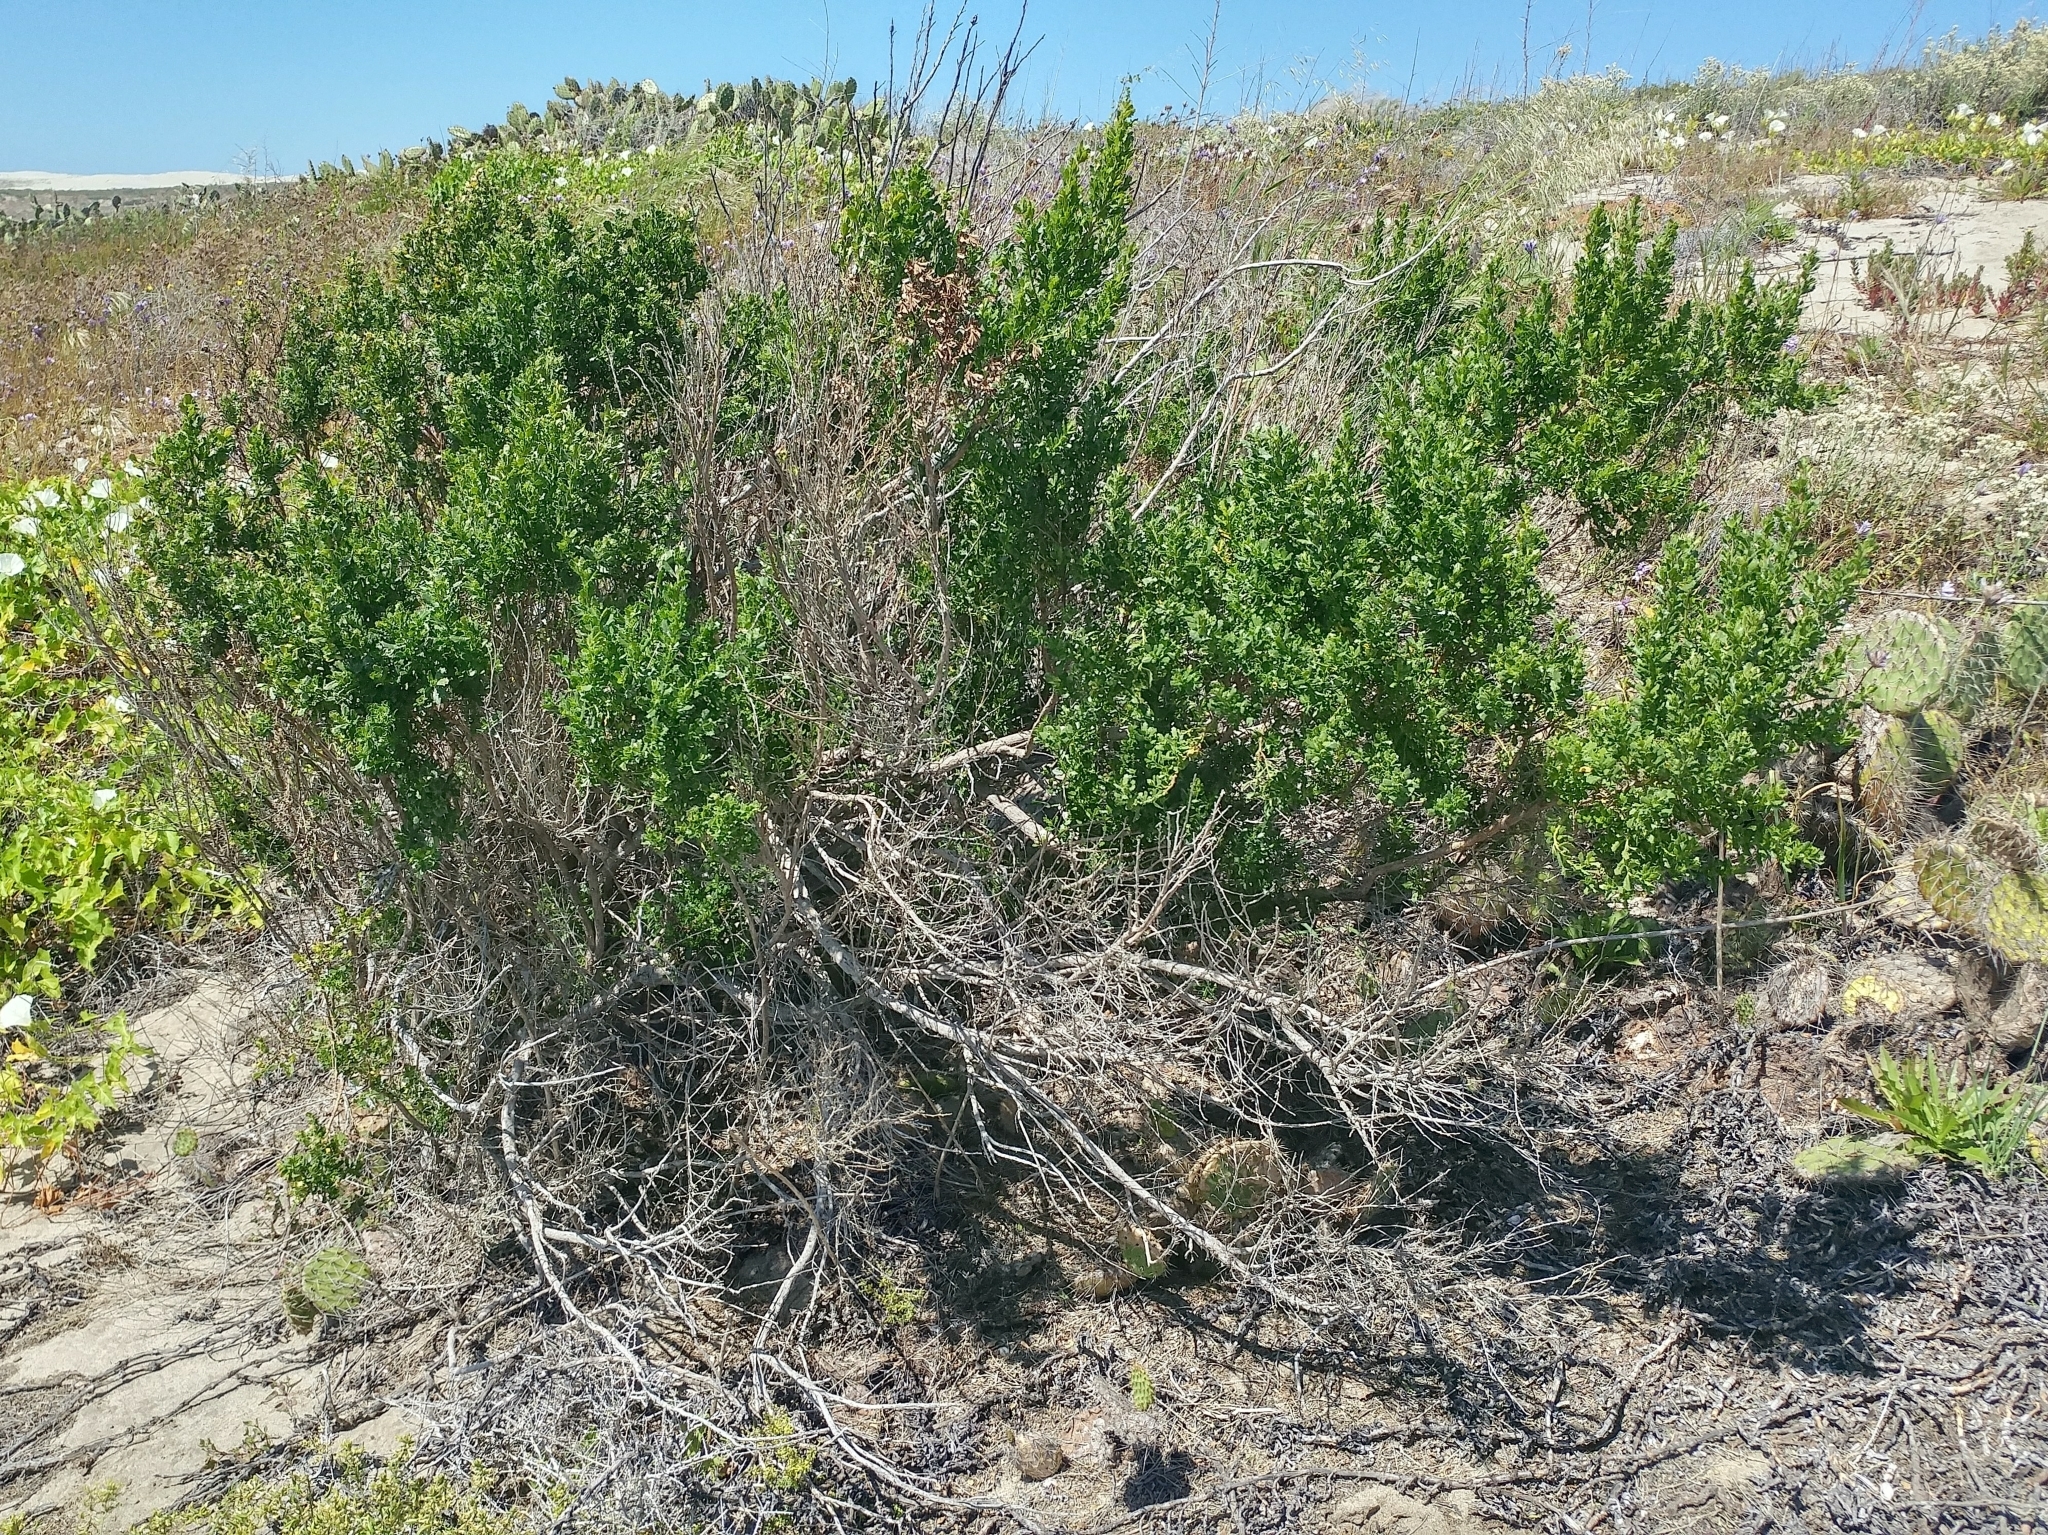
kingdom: Plantae
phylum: Tracheophyta
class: Magnoliopsida
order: Asterales
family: Asteraceae
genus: Baccharis
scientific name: Baccharis pilularis
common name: Coyotebrush
